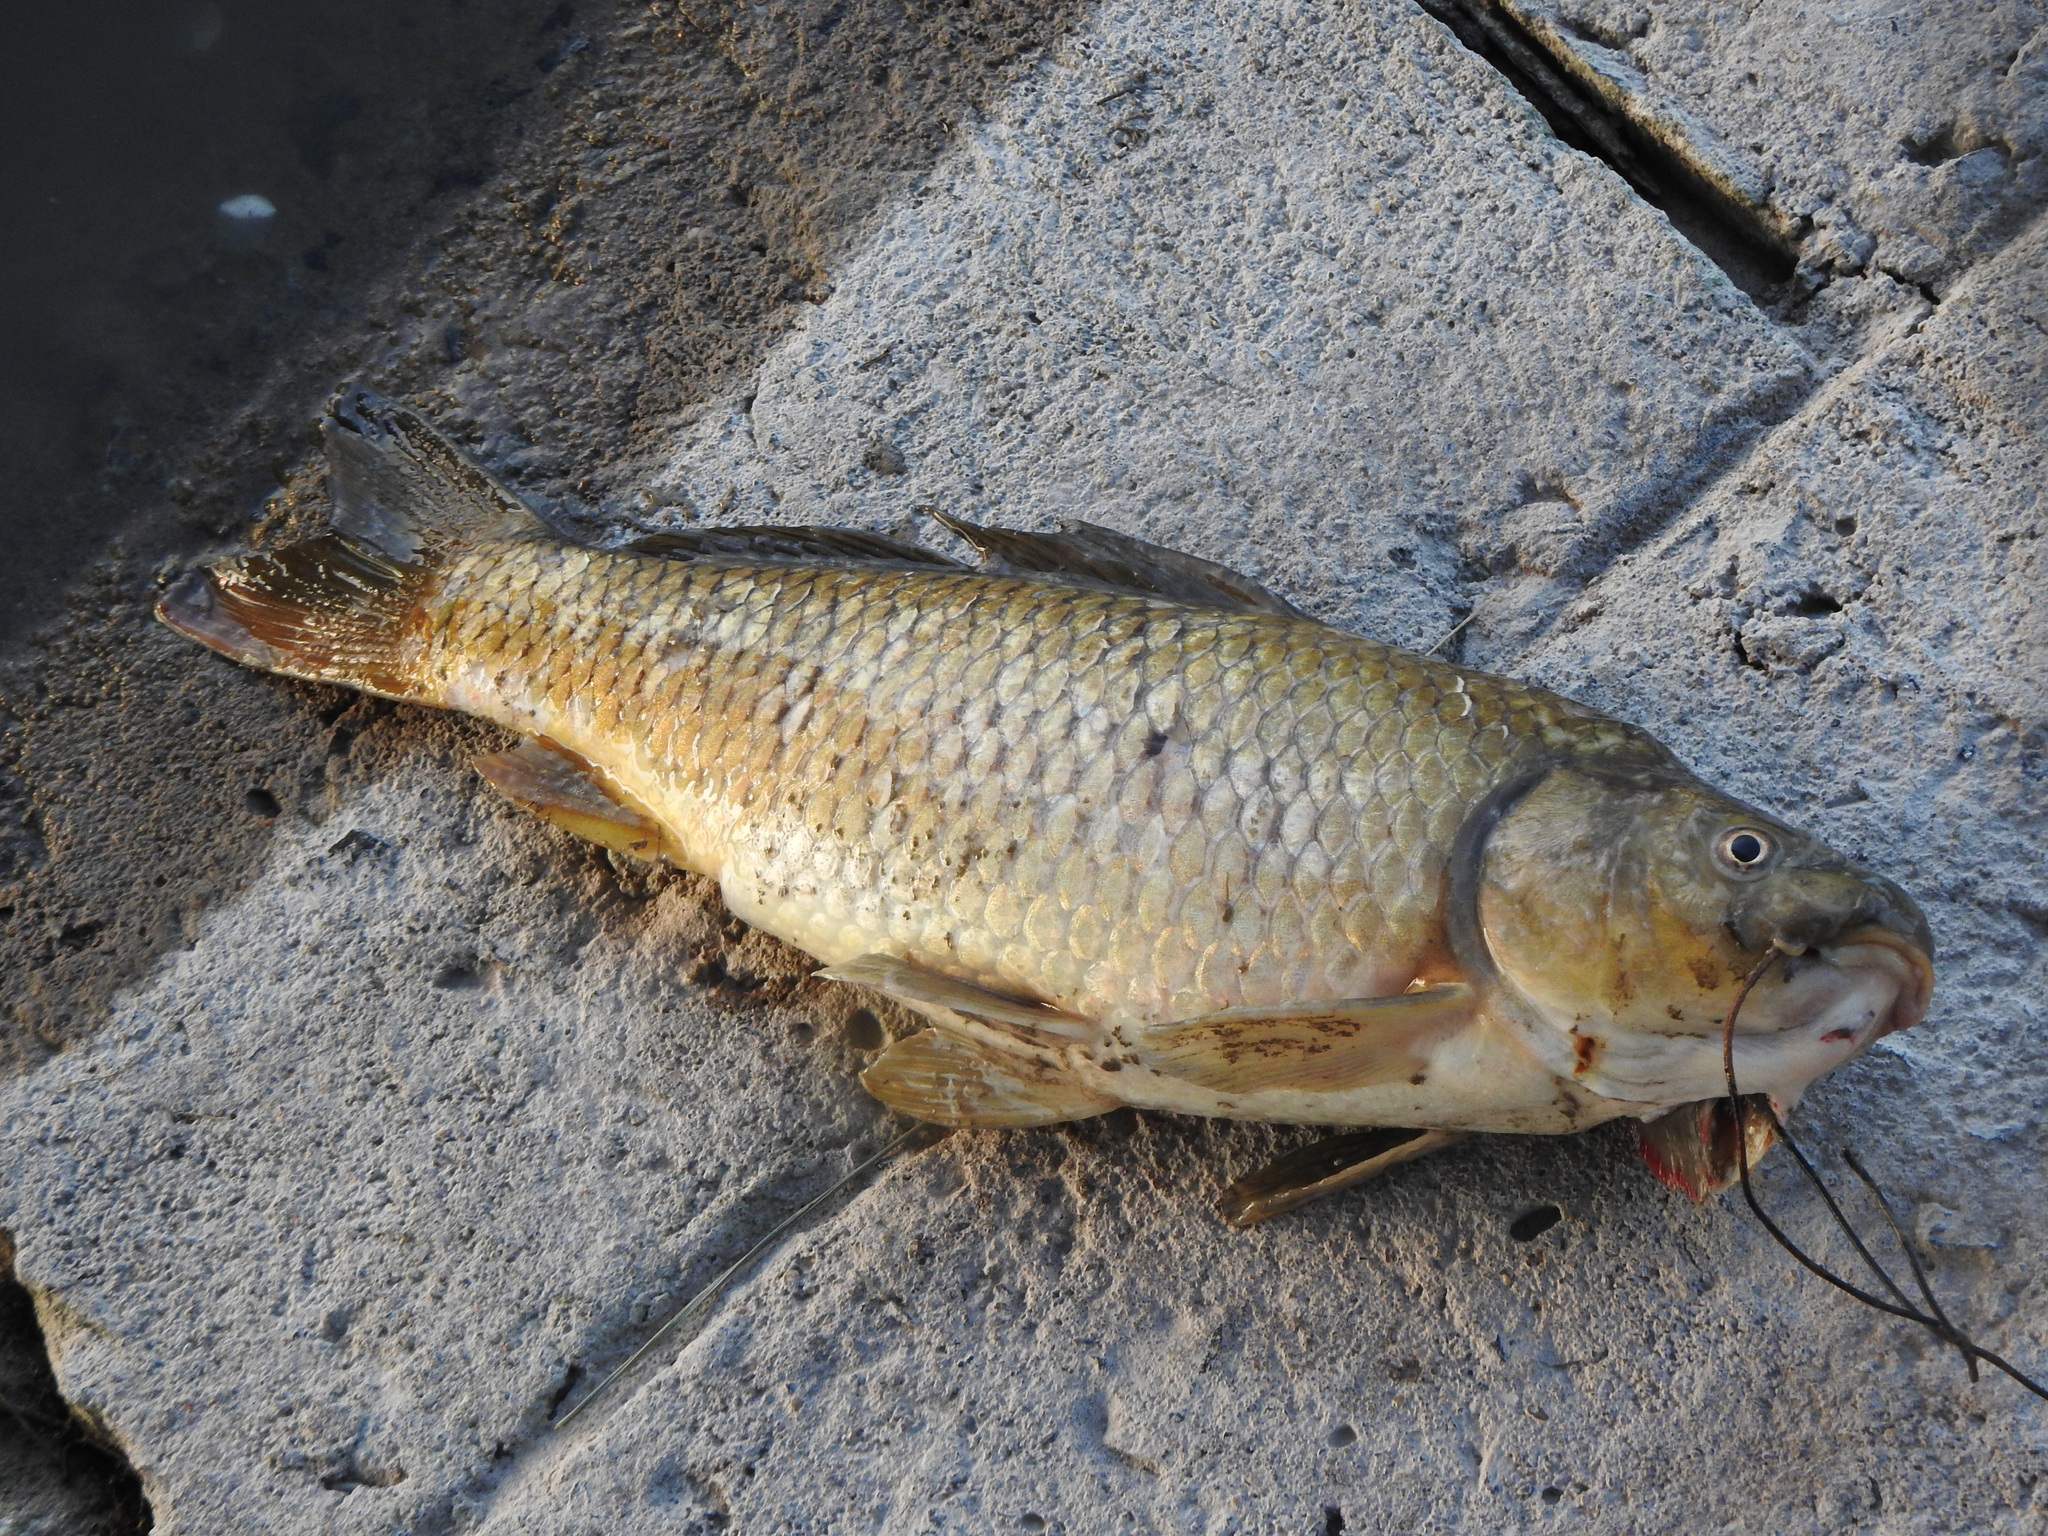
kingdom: Animalia
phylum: Chordata
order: Cypriniformes
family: Cyprinidae
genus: Cyprinus
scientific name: Cyprinus carpio
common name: Common carp
